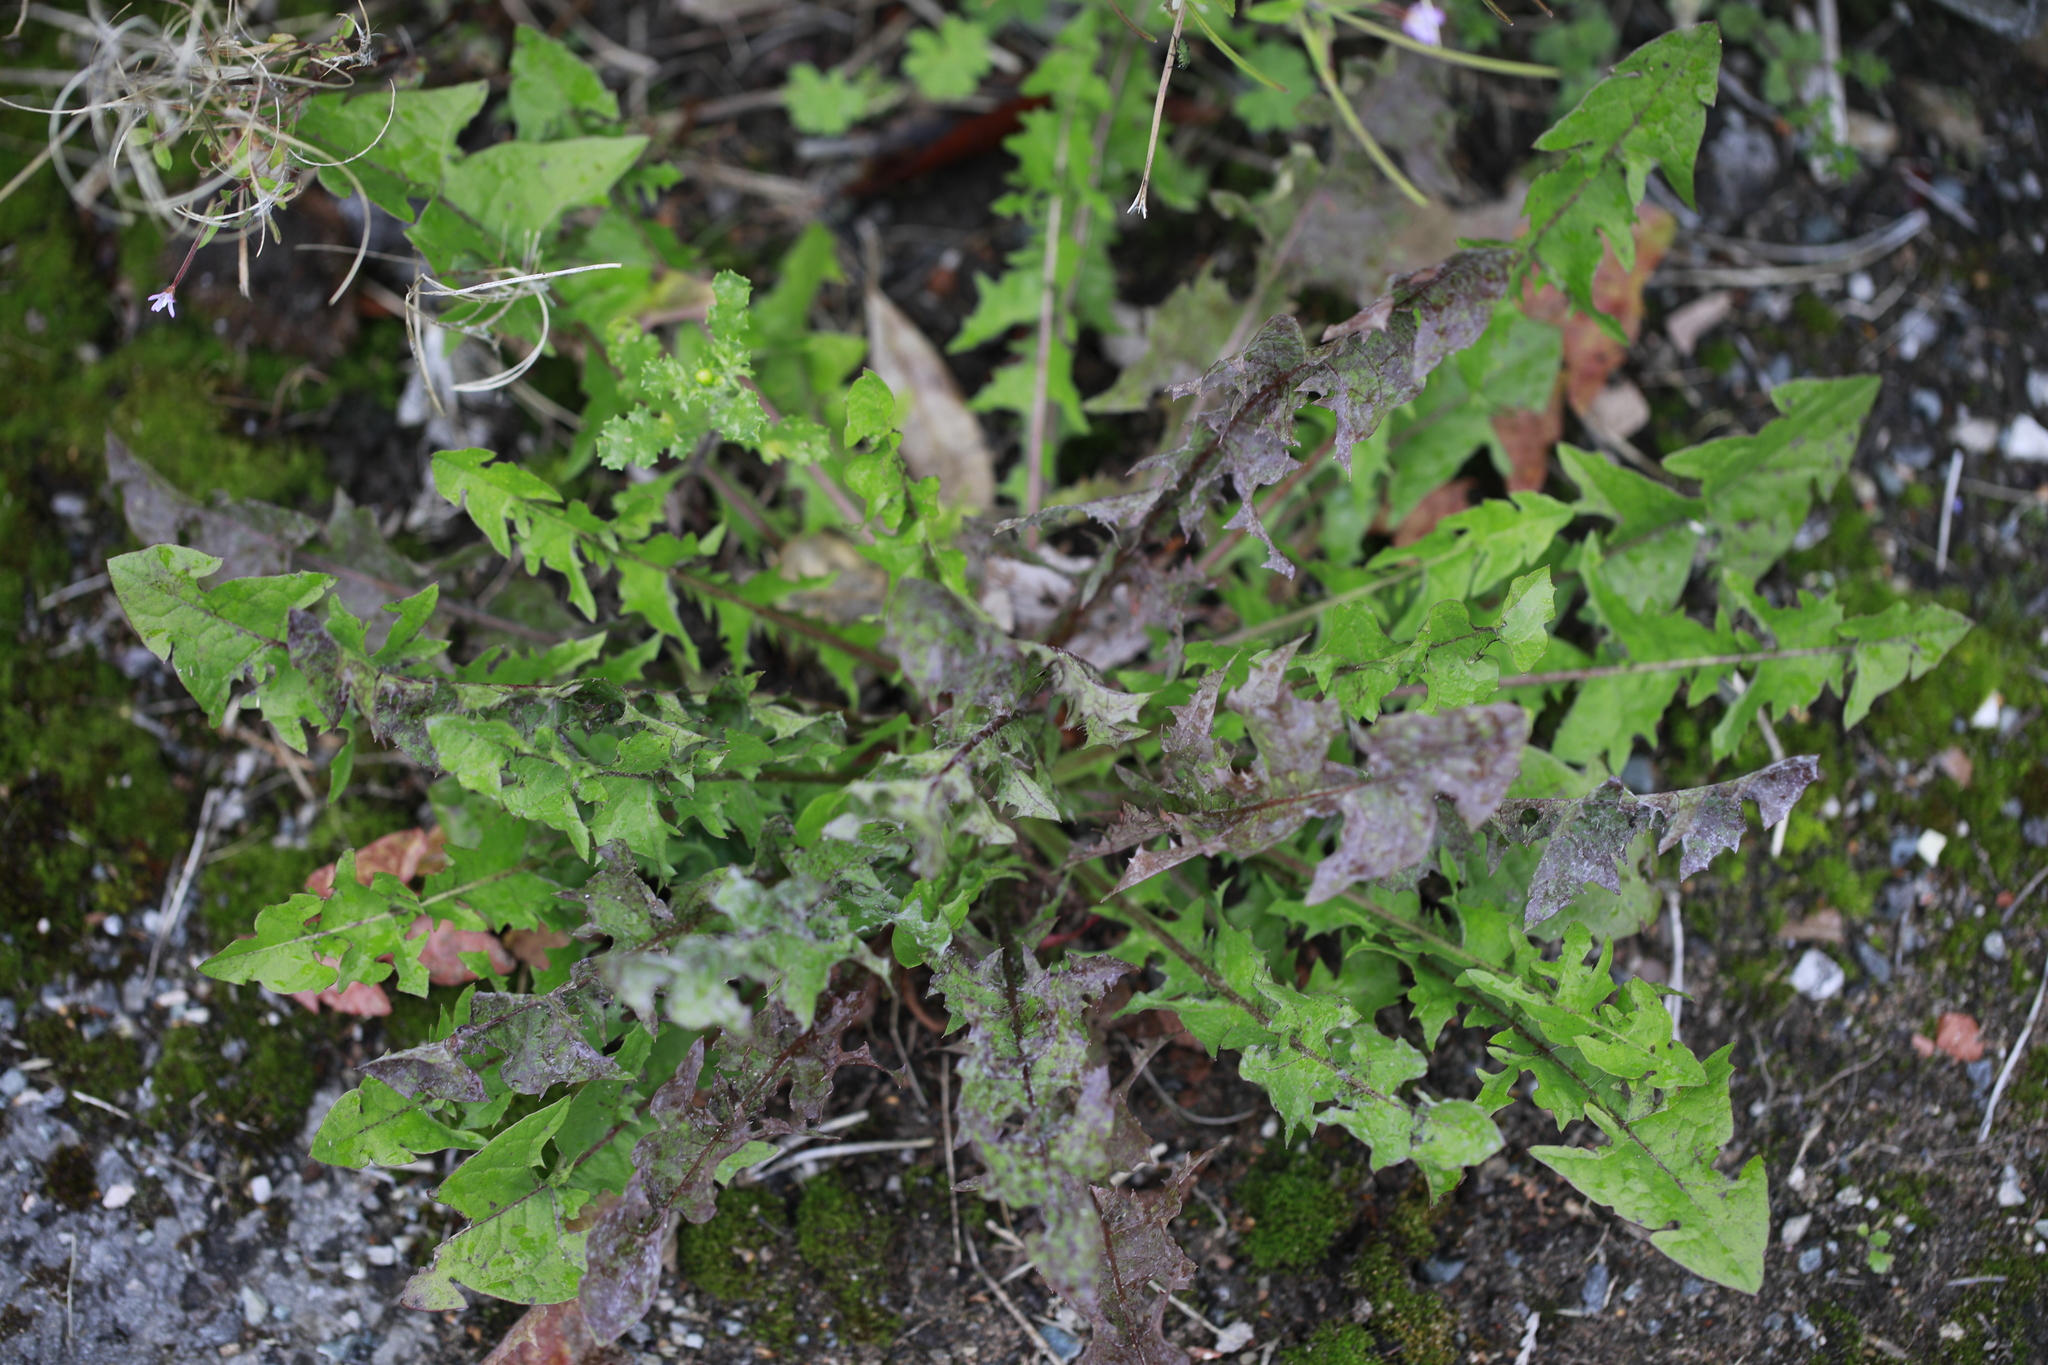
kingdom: Plantae
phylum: Tracheophyta
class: Magnoliopsida
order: Asterales
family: Asteraceae
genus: Taraxacum
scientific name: Taraxacum officinale
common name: Common dandelion
